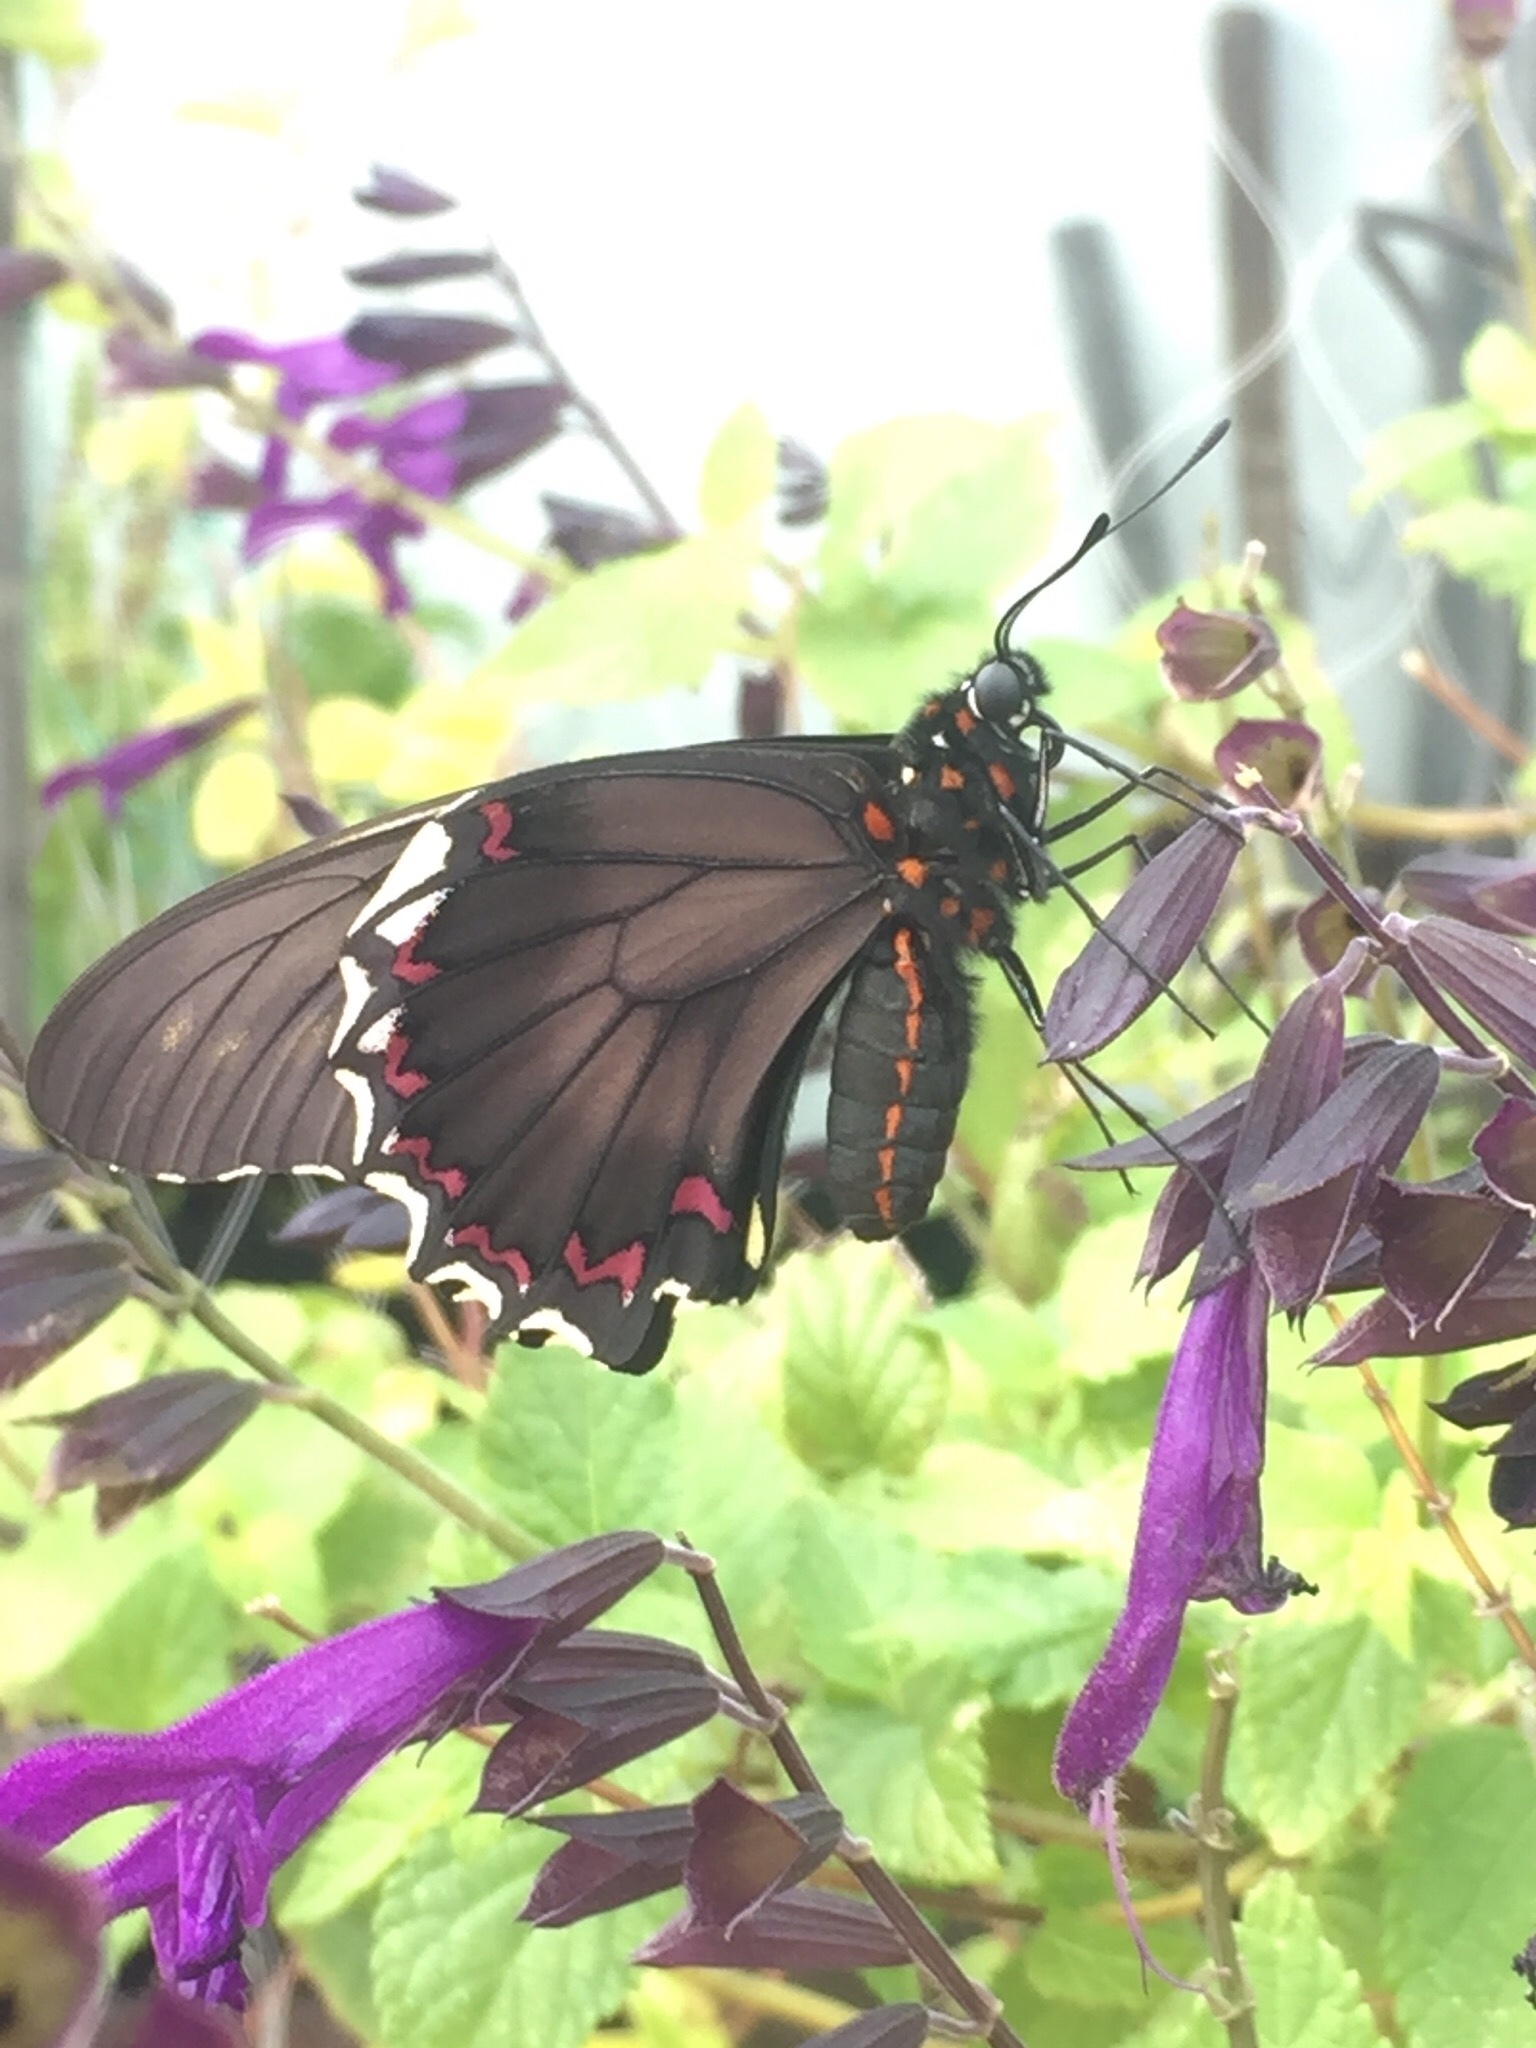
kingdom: Animalia
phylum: Arthropoda
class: Insecta
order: Lepidoptera
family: Papilionidae
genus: Battus
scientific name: Battus polydamas
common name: Polydamas swallowtail
